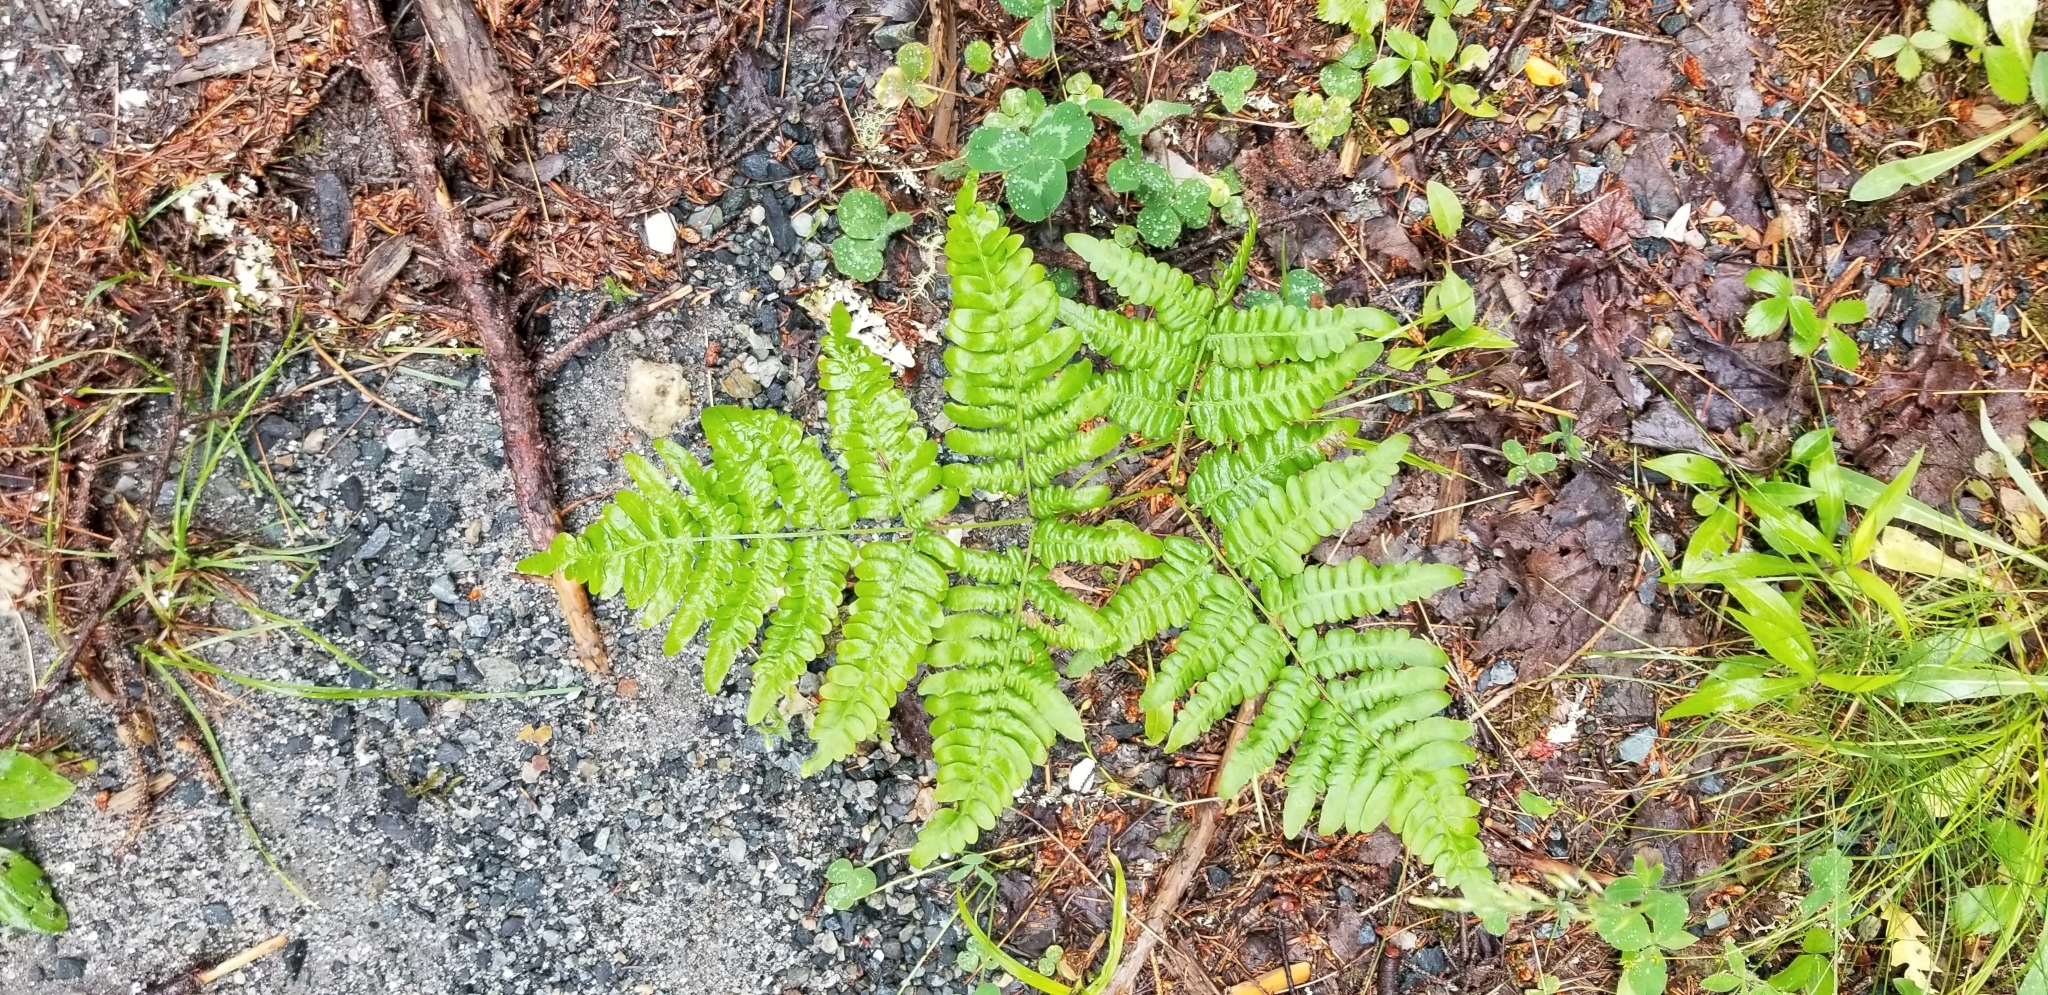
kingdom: Plantae
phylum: Tracheophyta
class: Polypodiopsida
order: Polypodiales
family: Dennstaedtiaceae
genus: Pteridium
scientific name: Pteridium aquilinum
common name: Bracken
